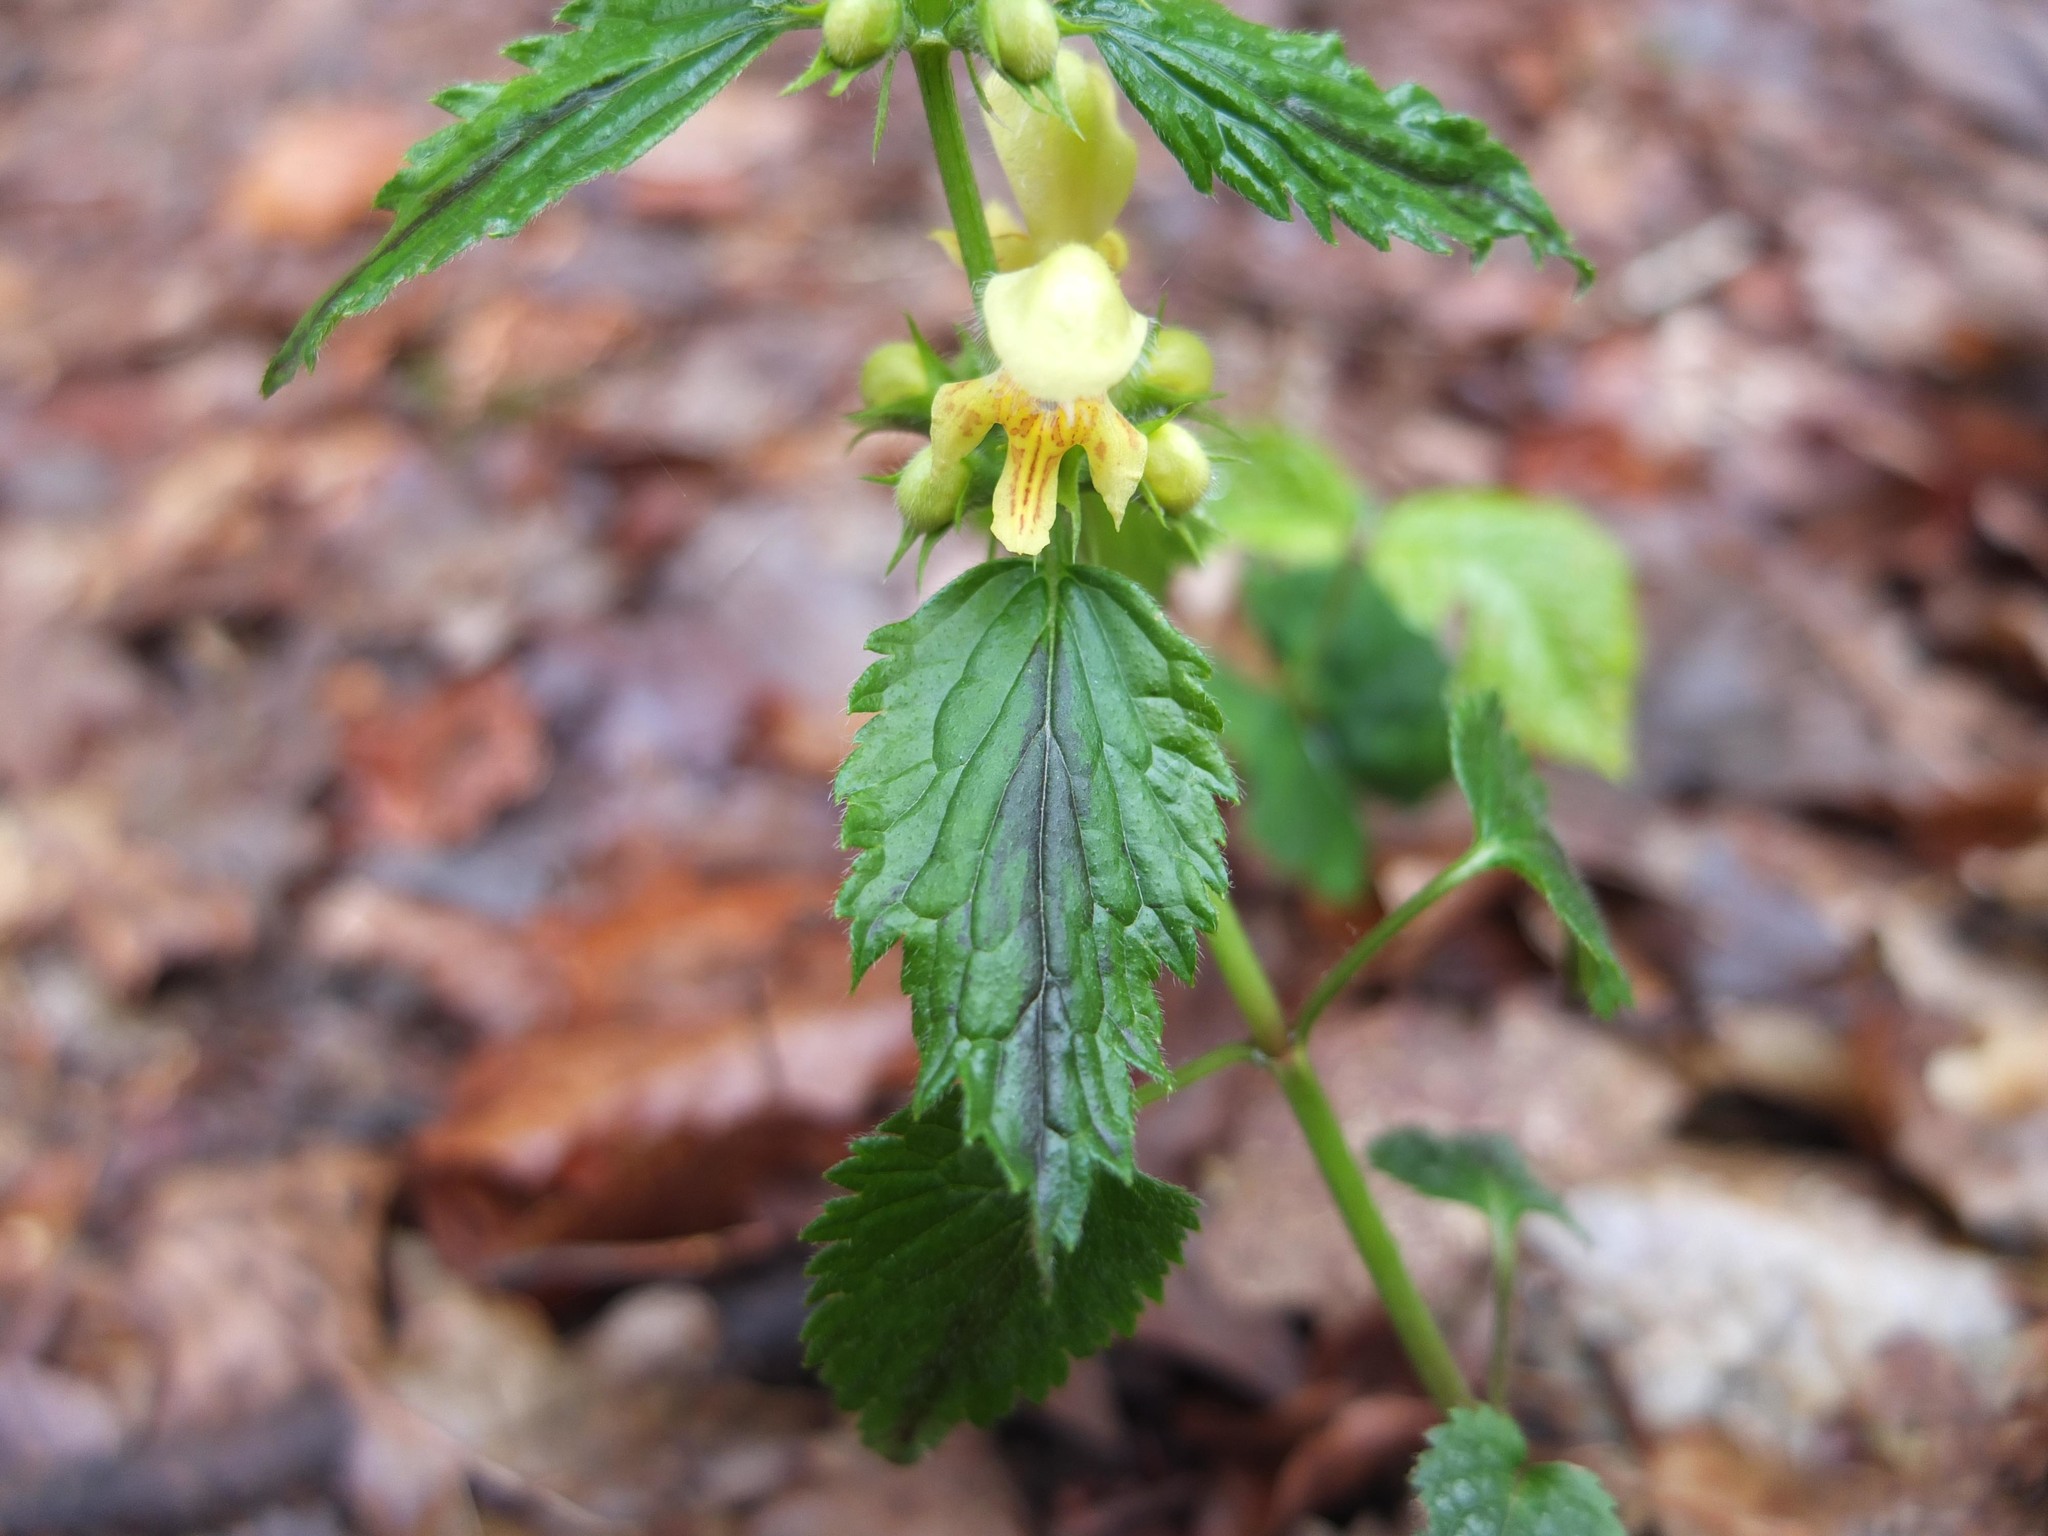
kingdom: Plantae
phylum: Tracheophyta
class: Magnoliopsida
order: Lamiales
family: Lamiaceae
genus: Lamium
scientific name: Lamium galeobdolon
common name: Yellow archangel
